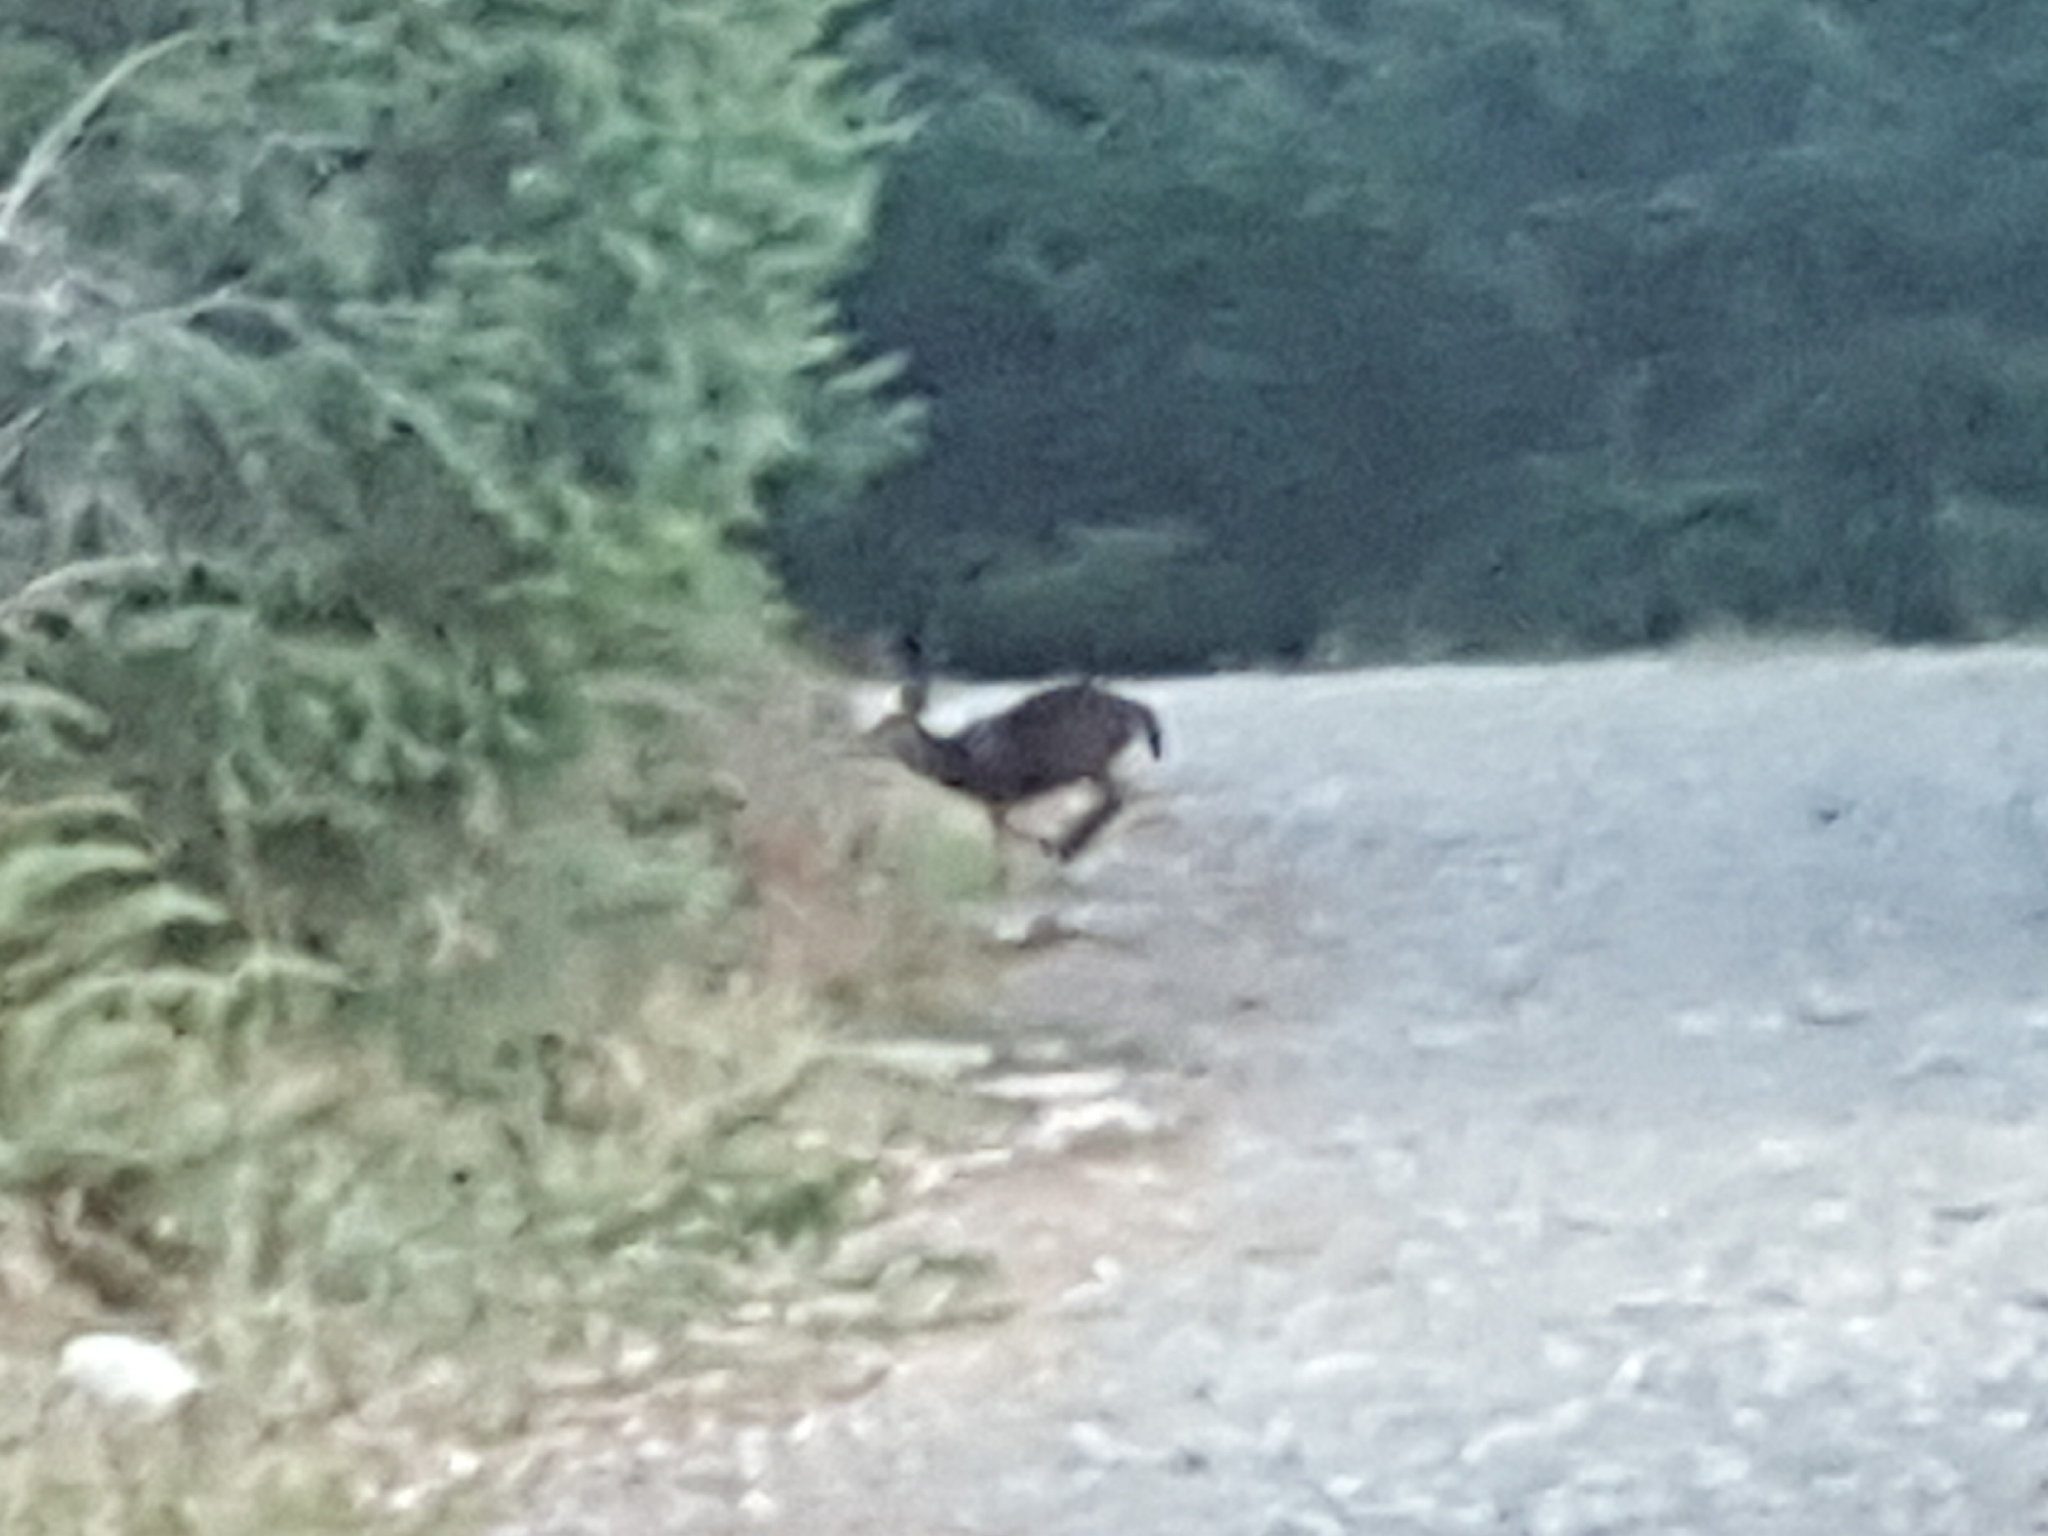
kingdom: Animalia
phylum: Chordata
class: Mammalia
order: Artiodactyla
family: Cervidae
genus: Odocoileus
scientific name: Odocoileus hemionus
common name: Mule deer
